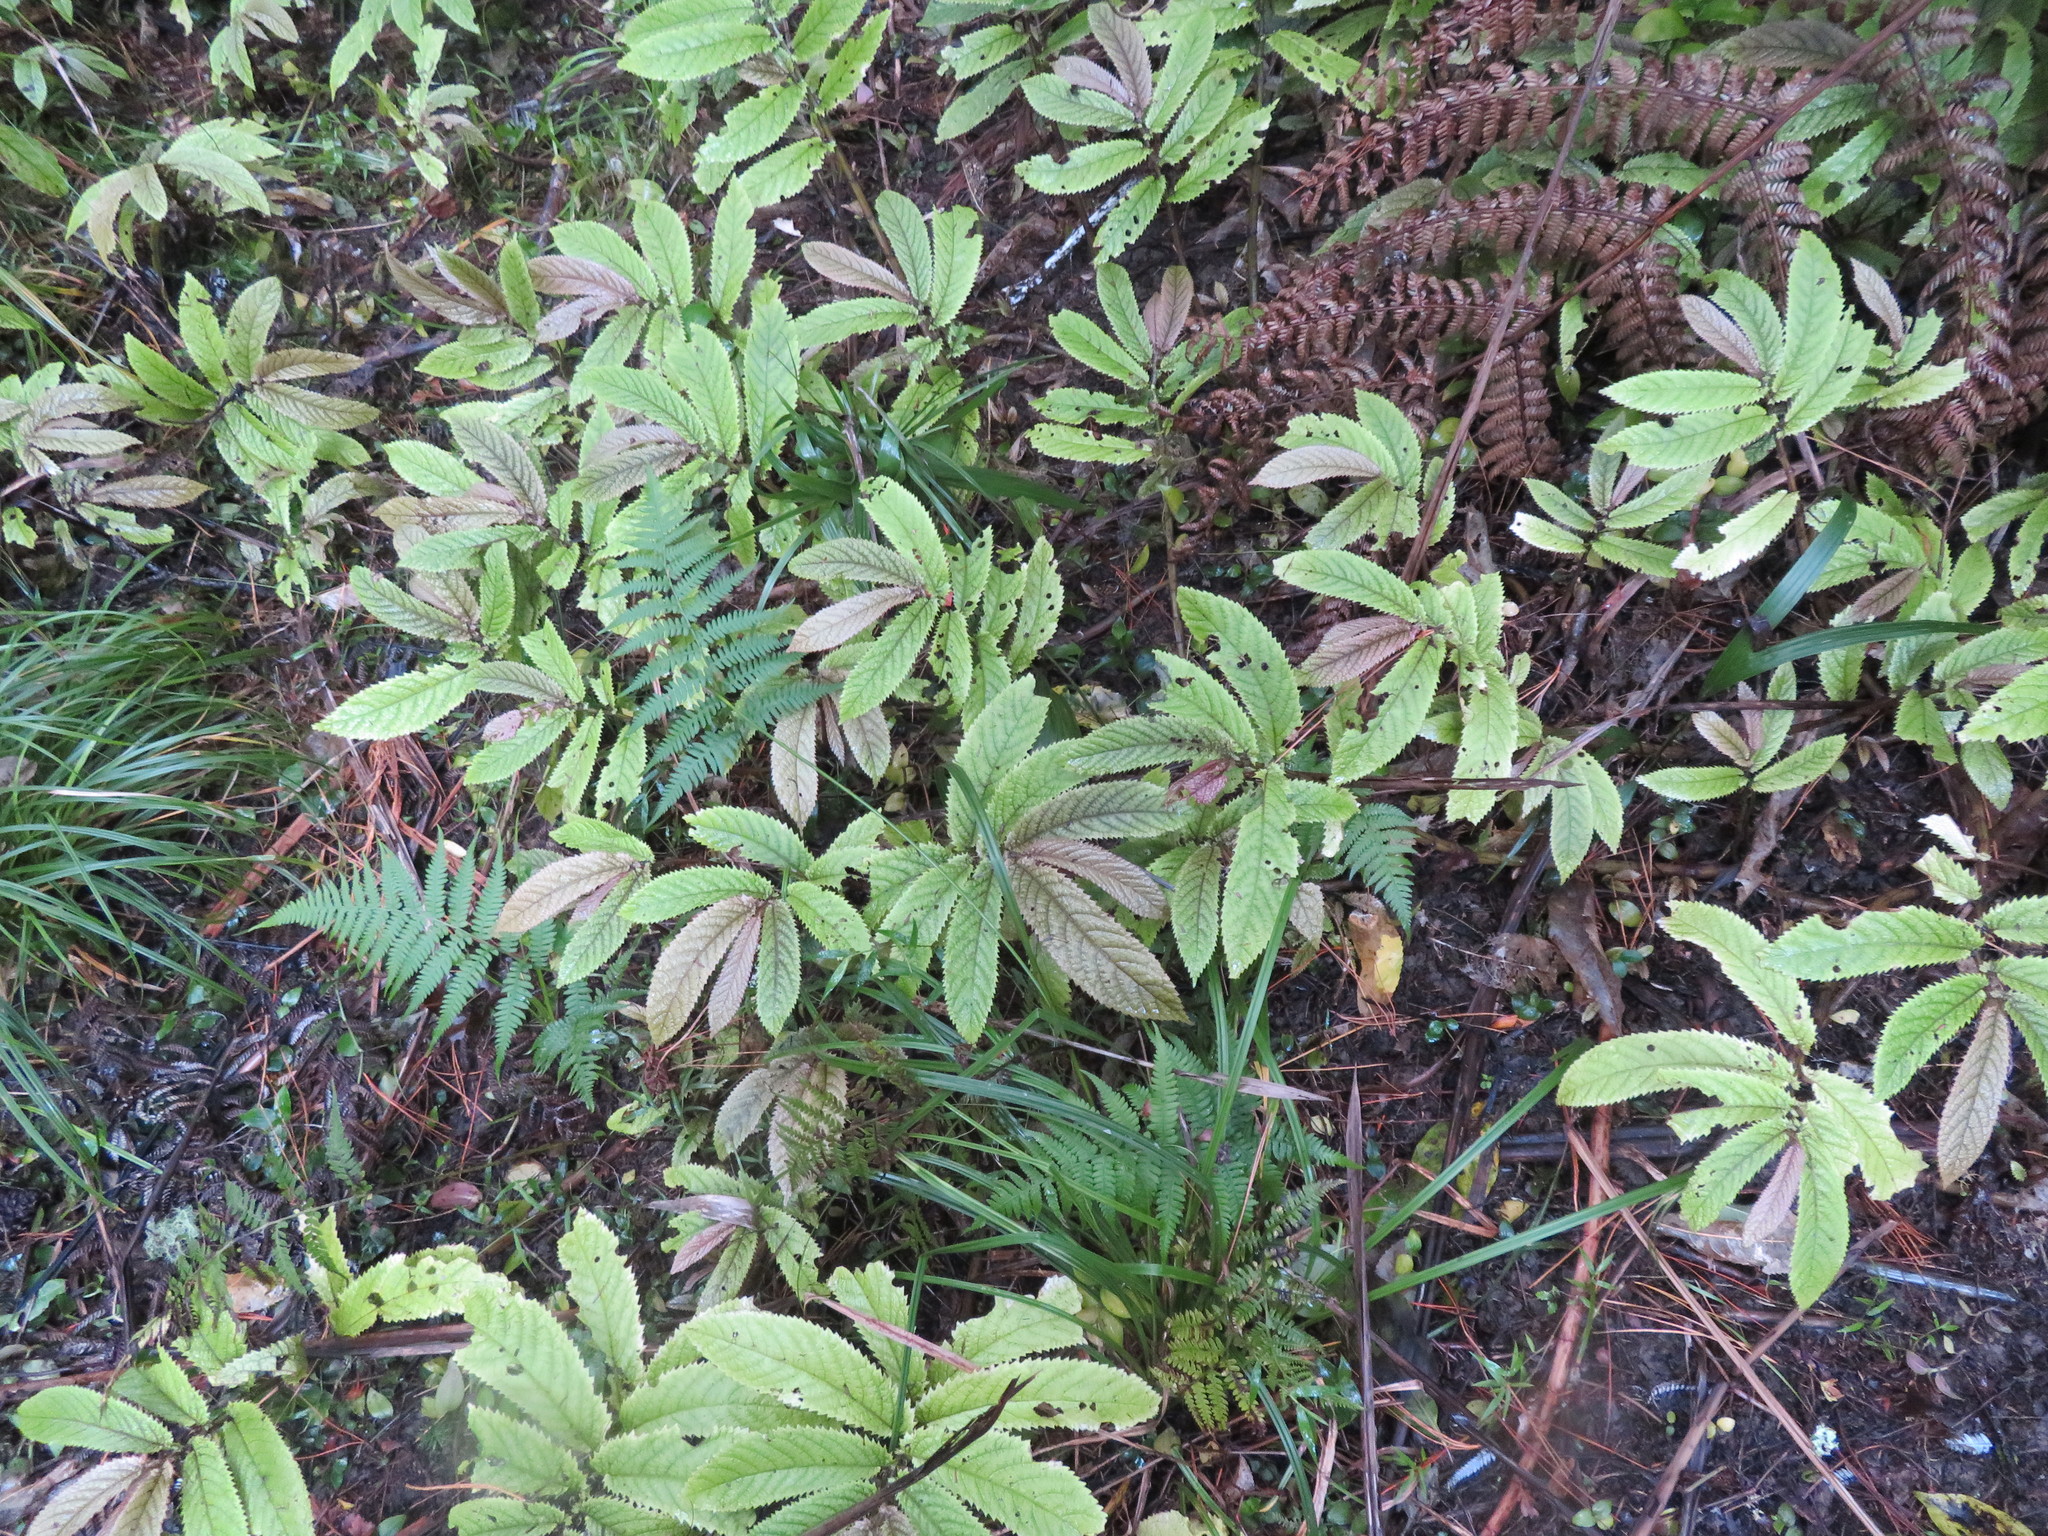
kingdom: Plantae
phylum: Tracheophyta
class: Liliopsida
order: Arecales
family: Arecaceae
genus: Phoenix
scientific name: Phoenix canariensis
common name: Canary island date palm
